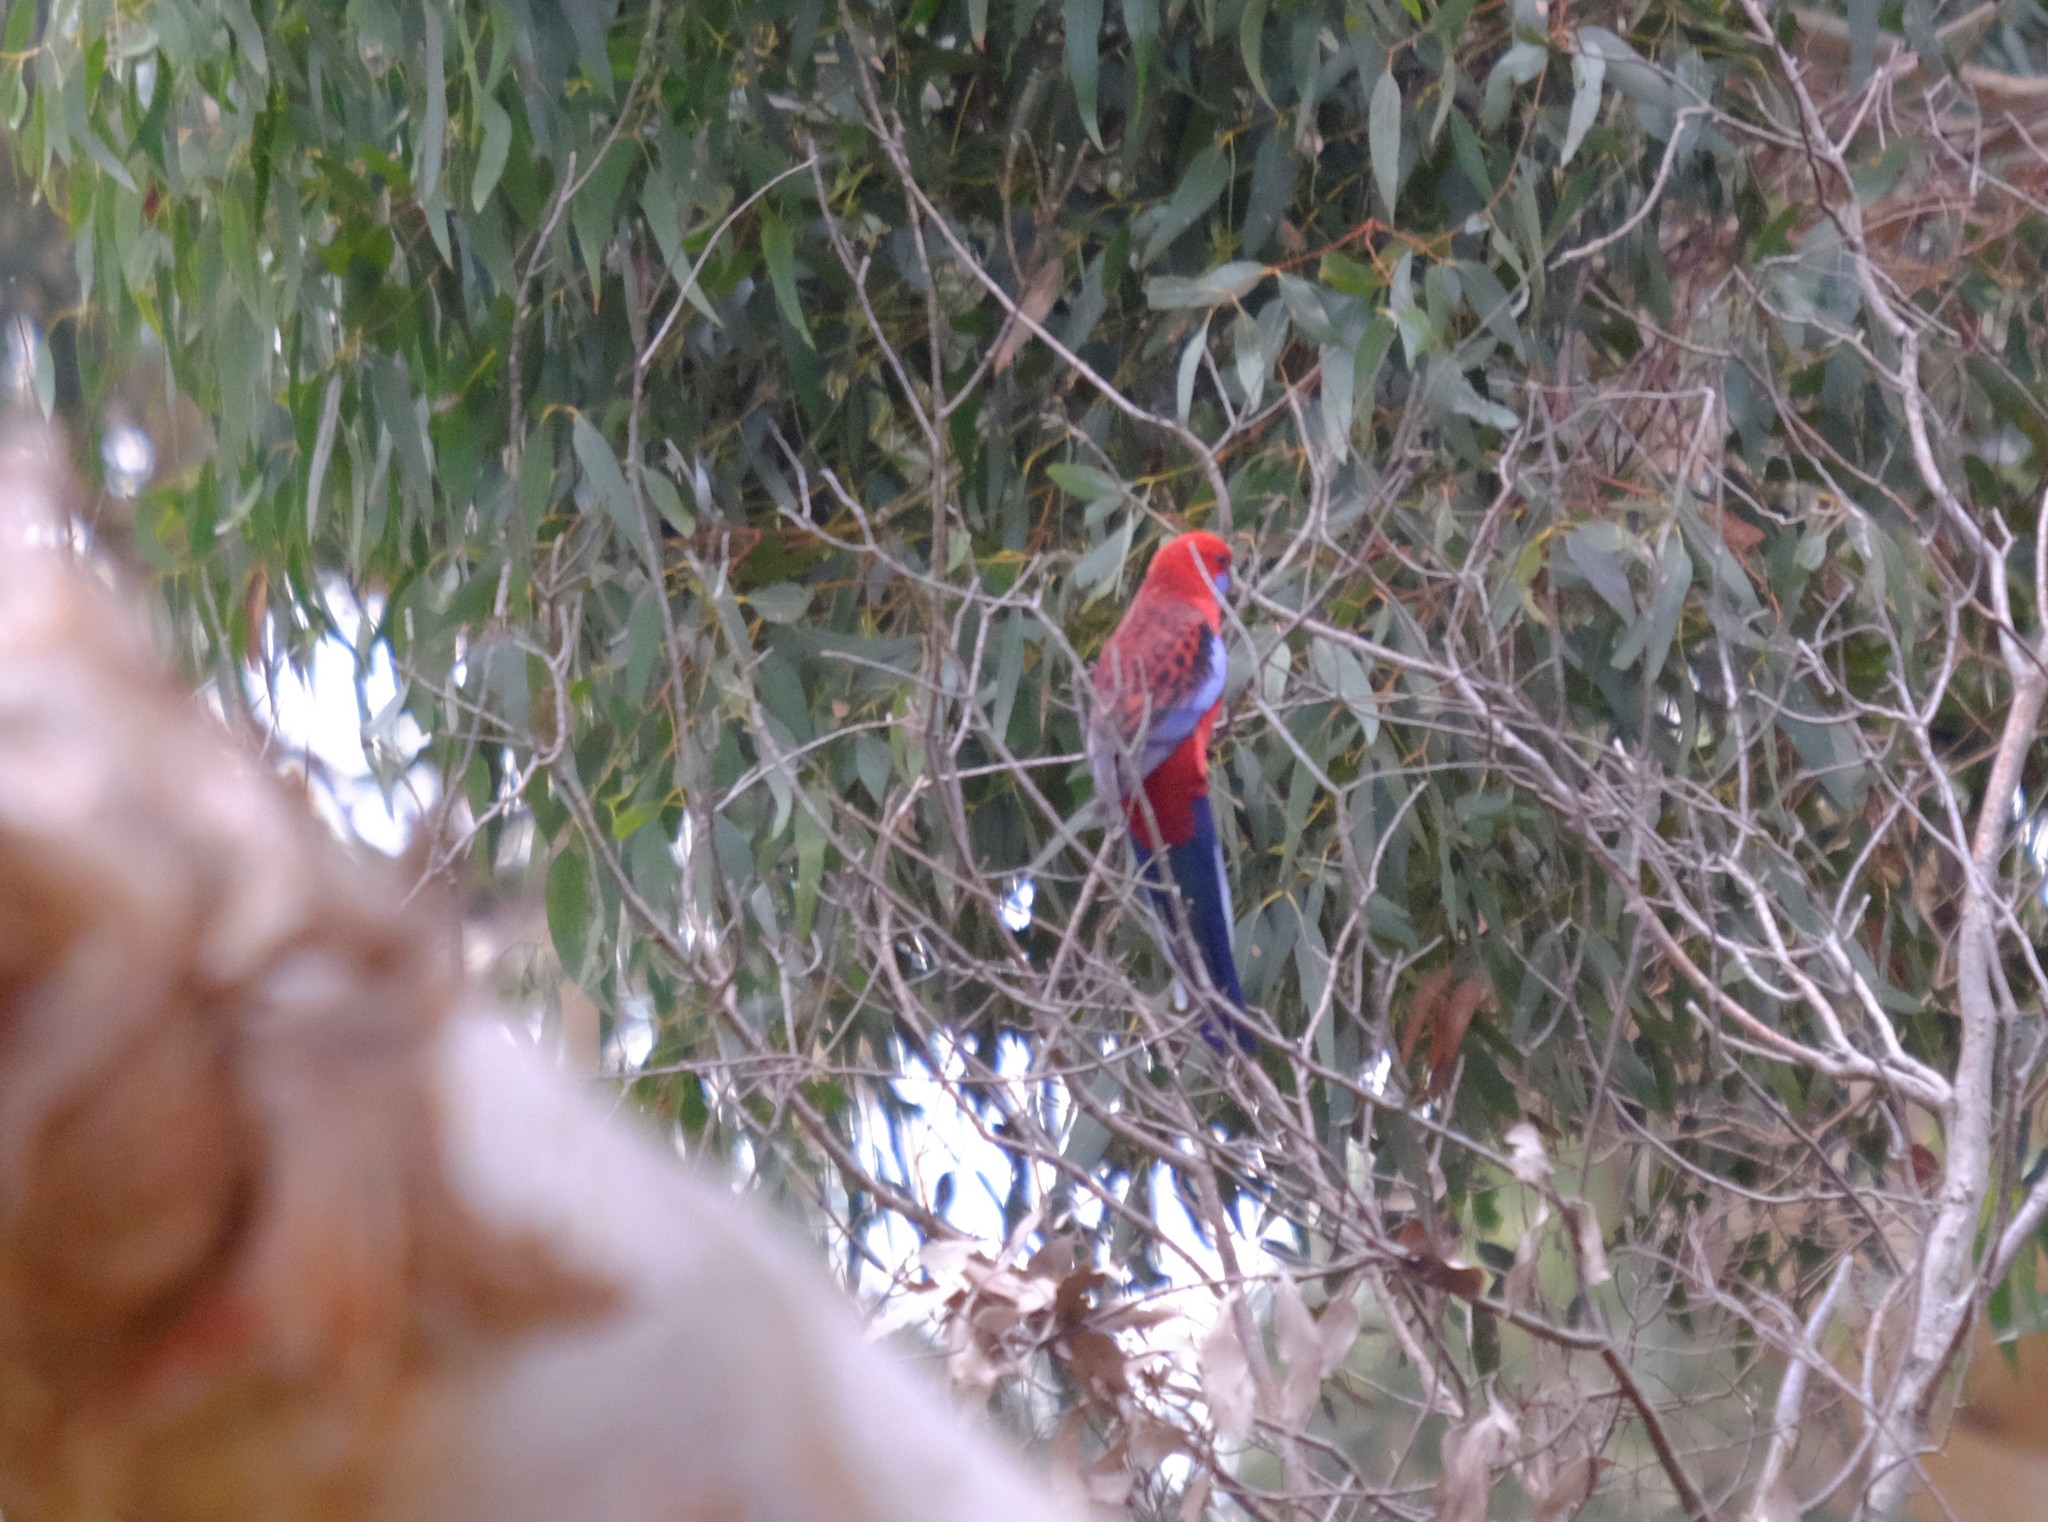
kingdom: Animalia
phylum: Chordata
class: Aves
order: Psittaciformes
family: Psittacidae
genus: Platycercus
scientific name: Platycercus elegans
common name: Crimson rosella
